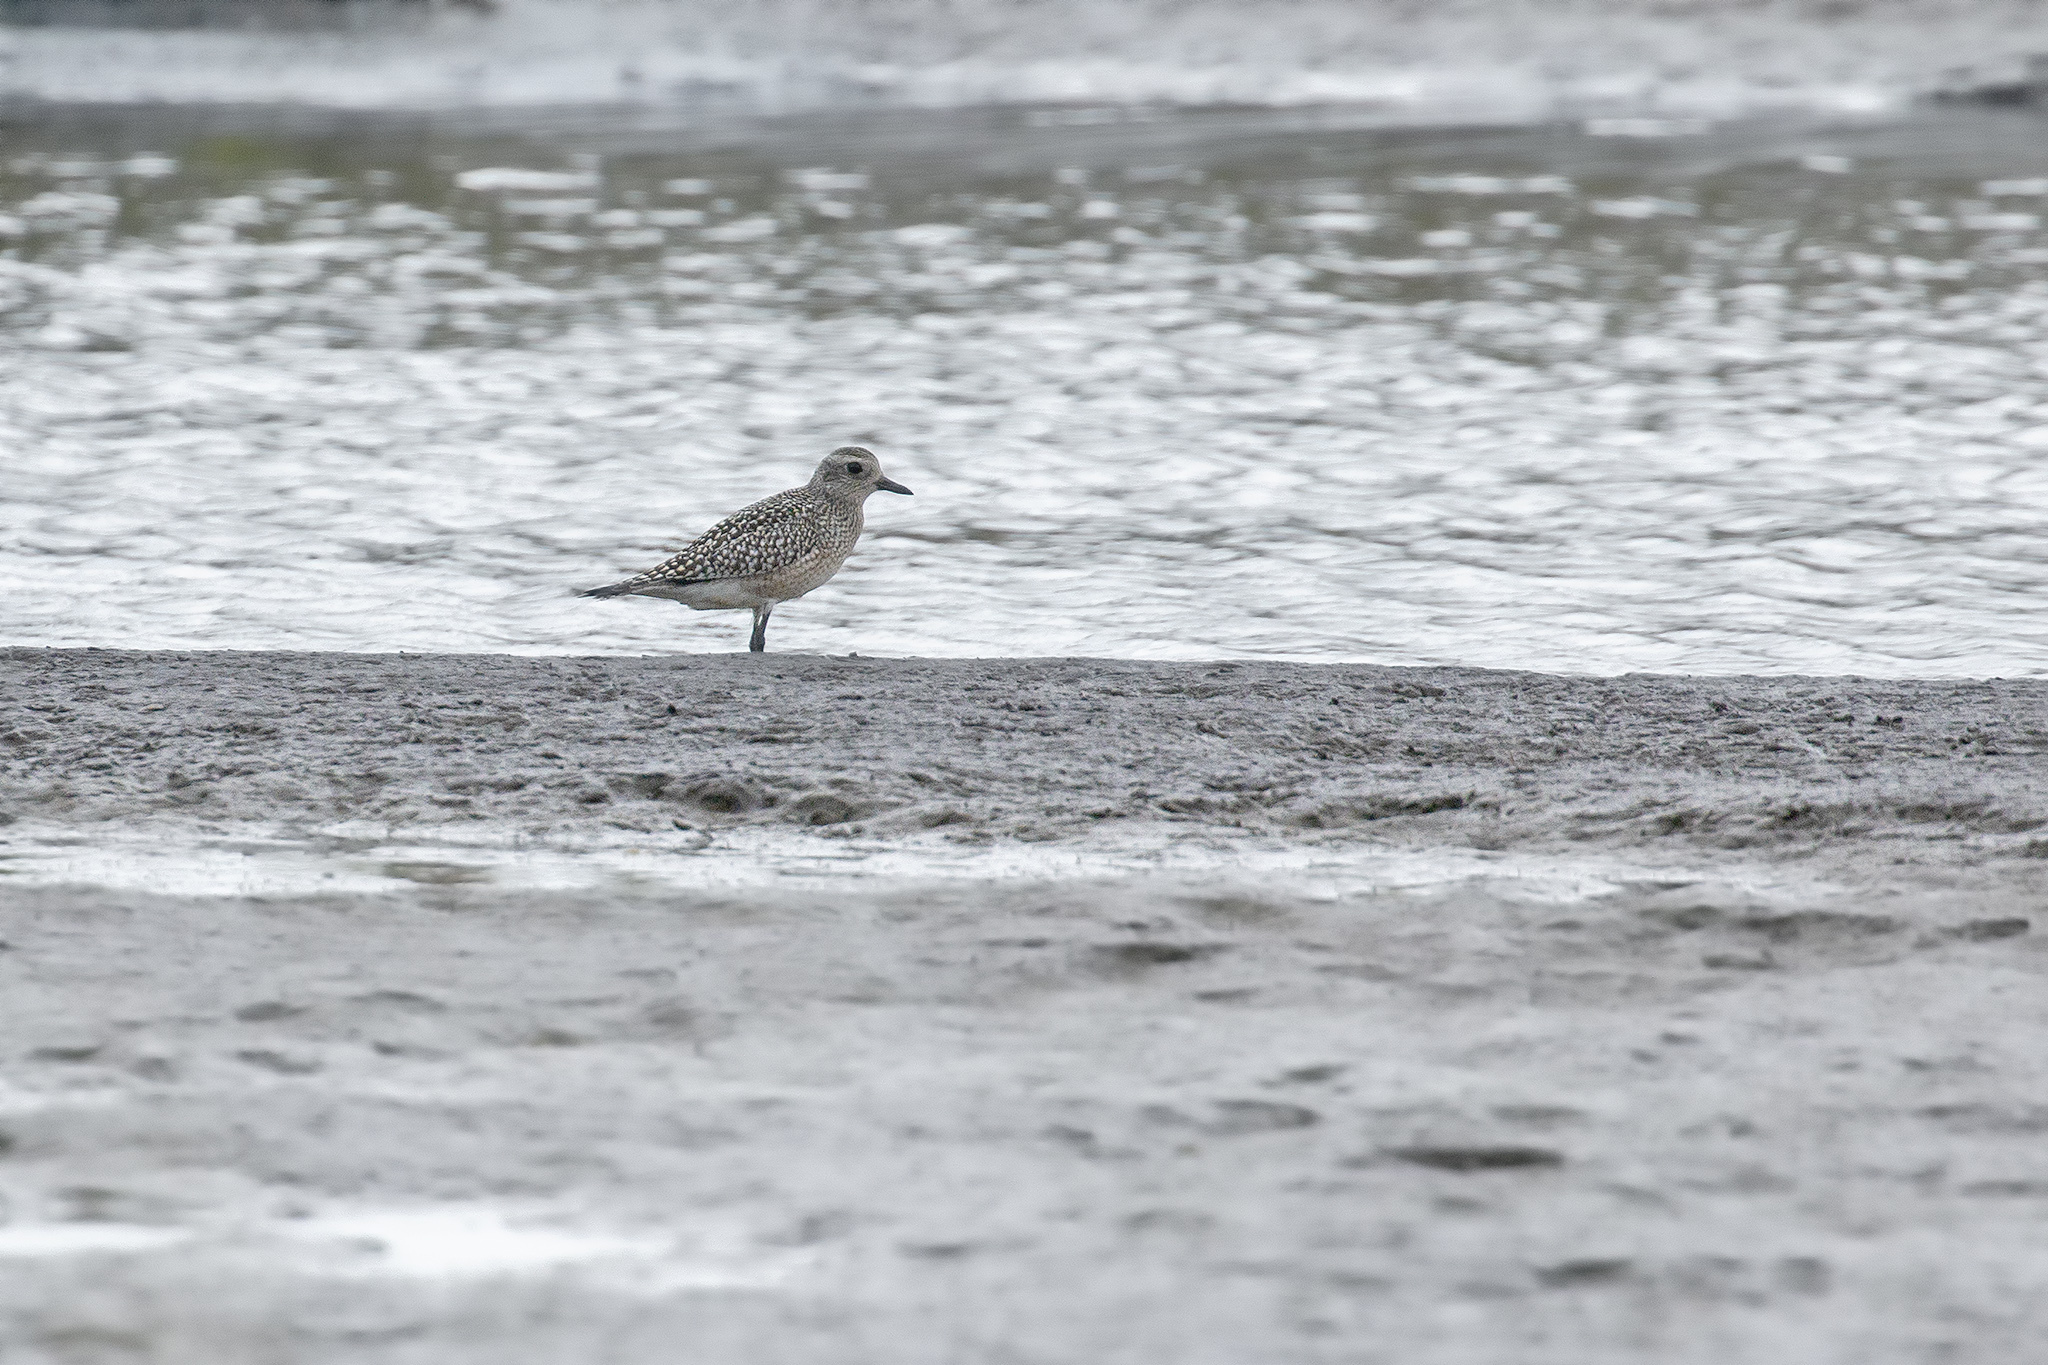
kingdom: Animalia
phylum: Chordata
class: Aves
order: Charadriiformes
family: Charadriidae
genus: Pluvialis
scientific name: Pluvialis squatarola
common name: Grey plover
